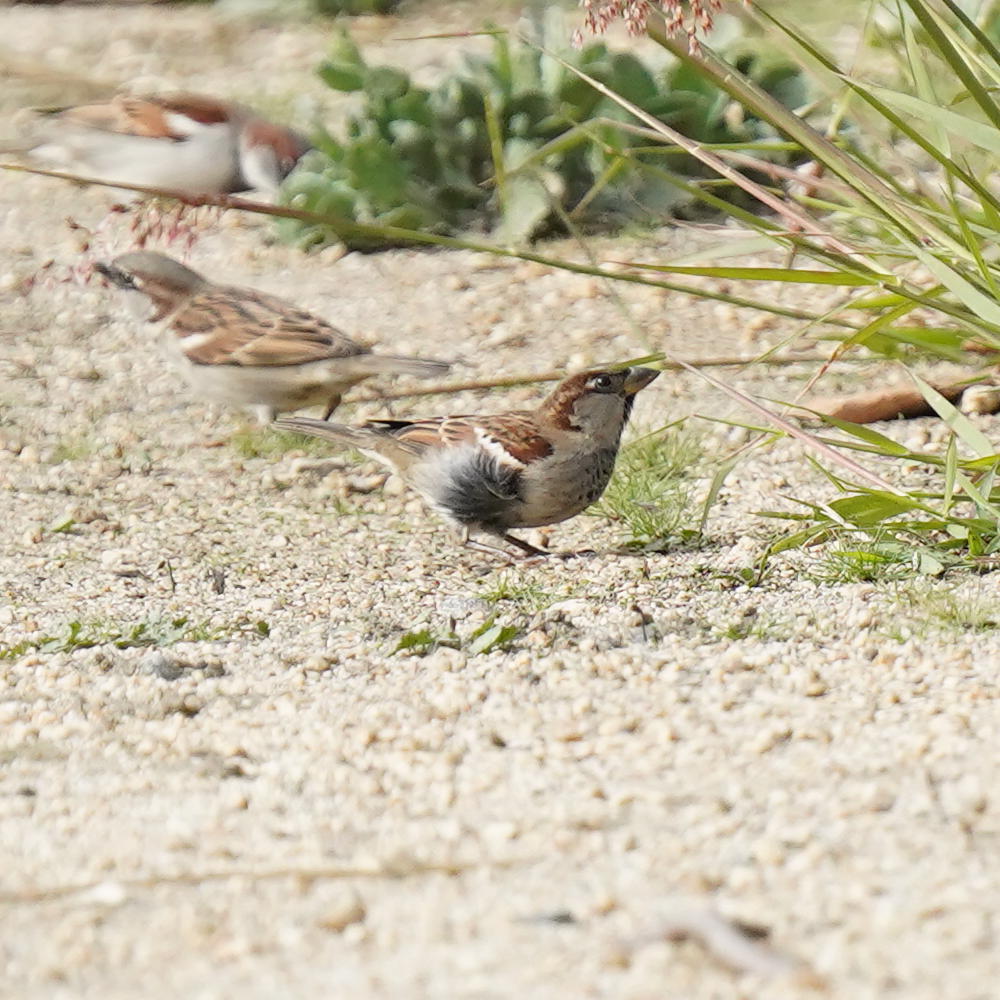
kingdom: Animalia
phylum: Chordata
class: Aves
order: Passeriformes
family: Passeridae
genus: Passer
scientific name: Passer domesticus
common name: House sparrow
